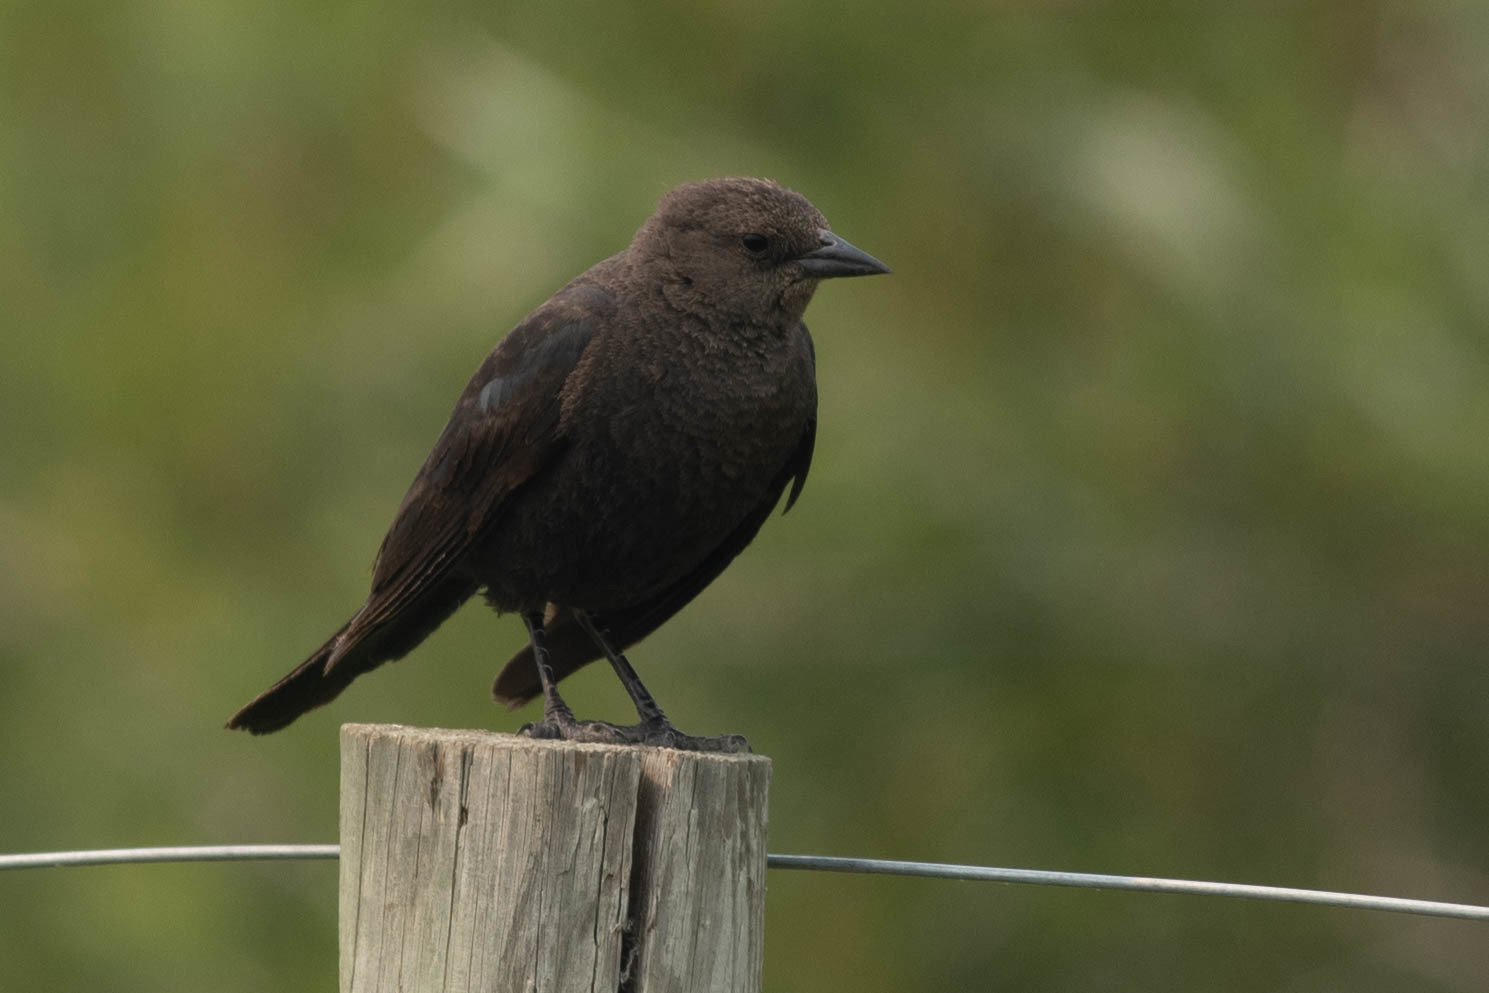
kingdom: Animalia
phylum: Chordata
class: Aves
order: Passeriformes
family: Icteridae
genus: Euphagus
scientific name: Euphagus cyanocephalus
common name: Brewer's blackbird
